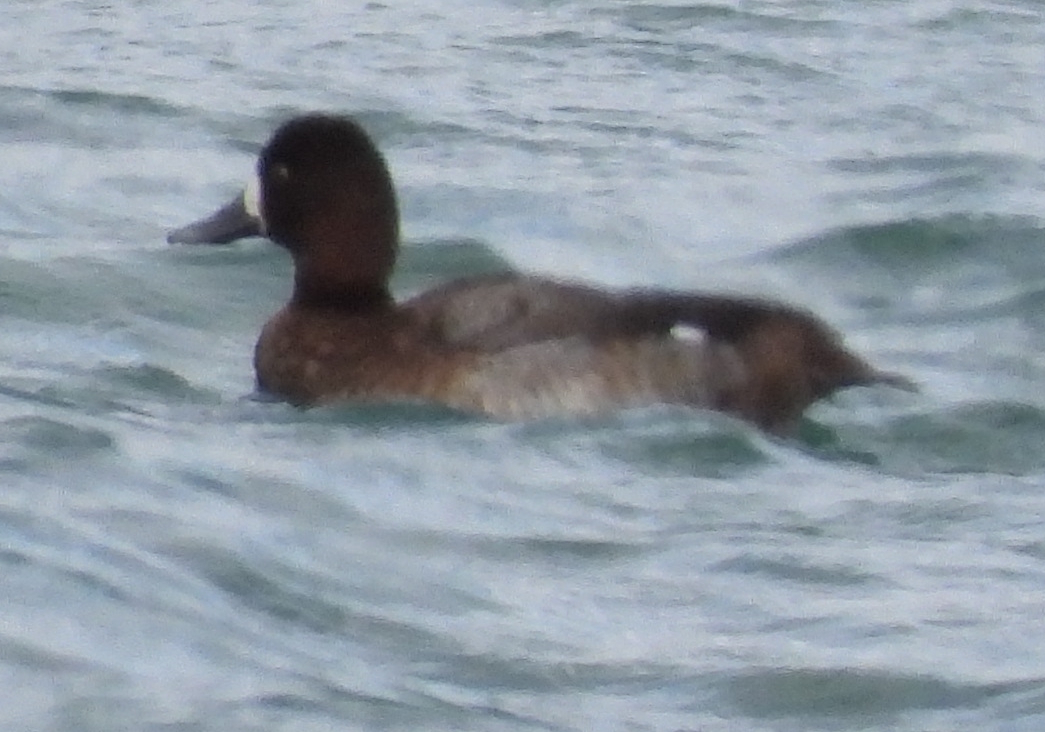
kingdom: Animalia
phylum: Chordata
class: Aves
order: Anseriformes
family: Anatidae
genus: Aythya
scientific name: Aythya affinis
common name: Lesser scaup
